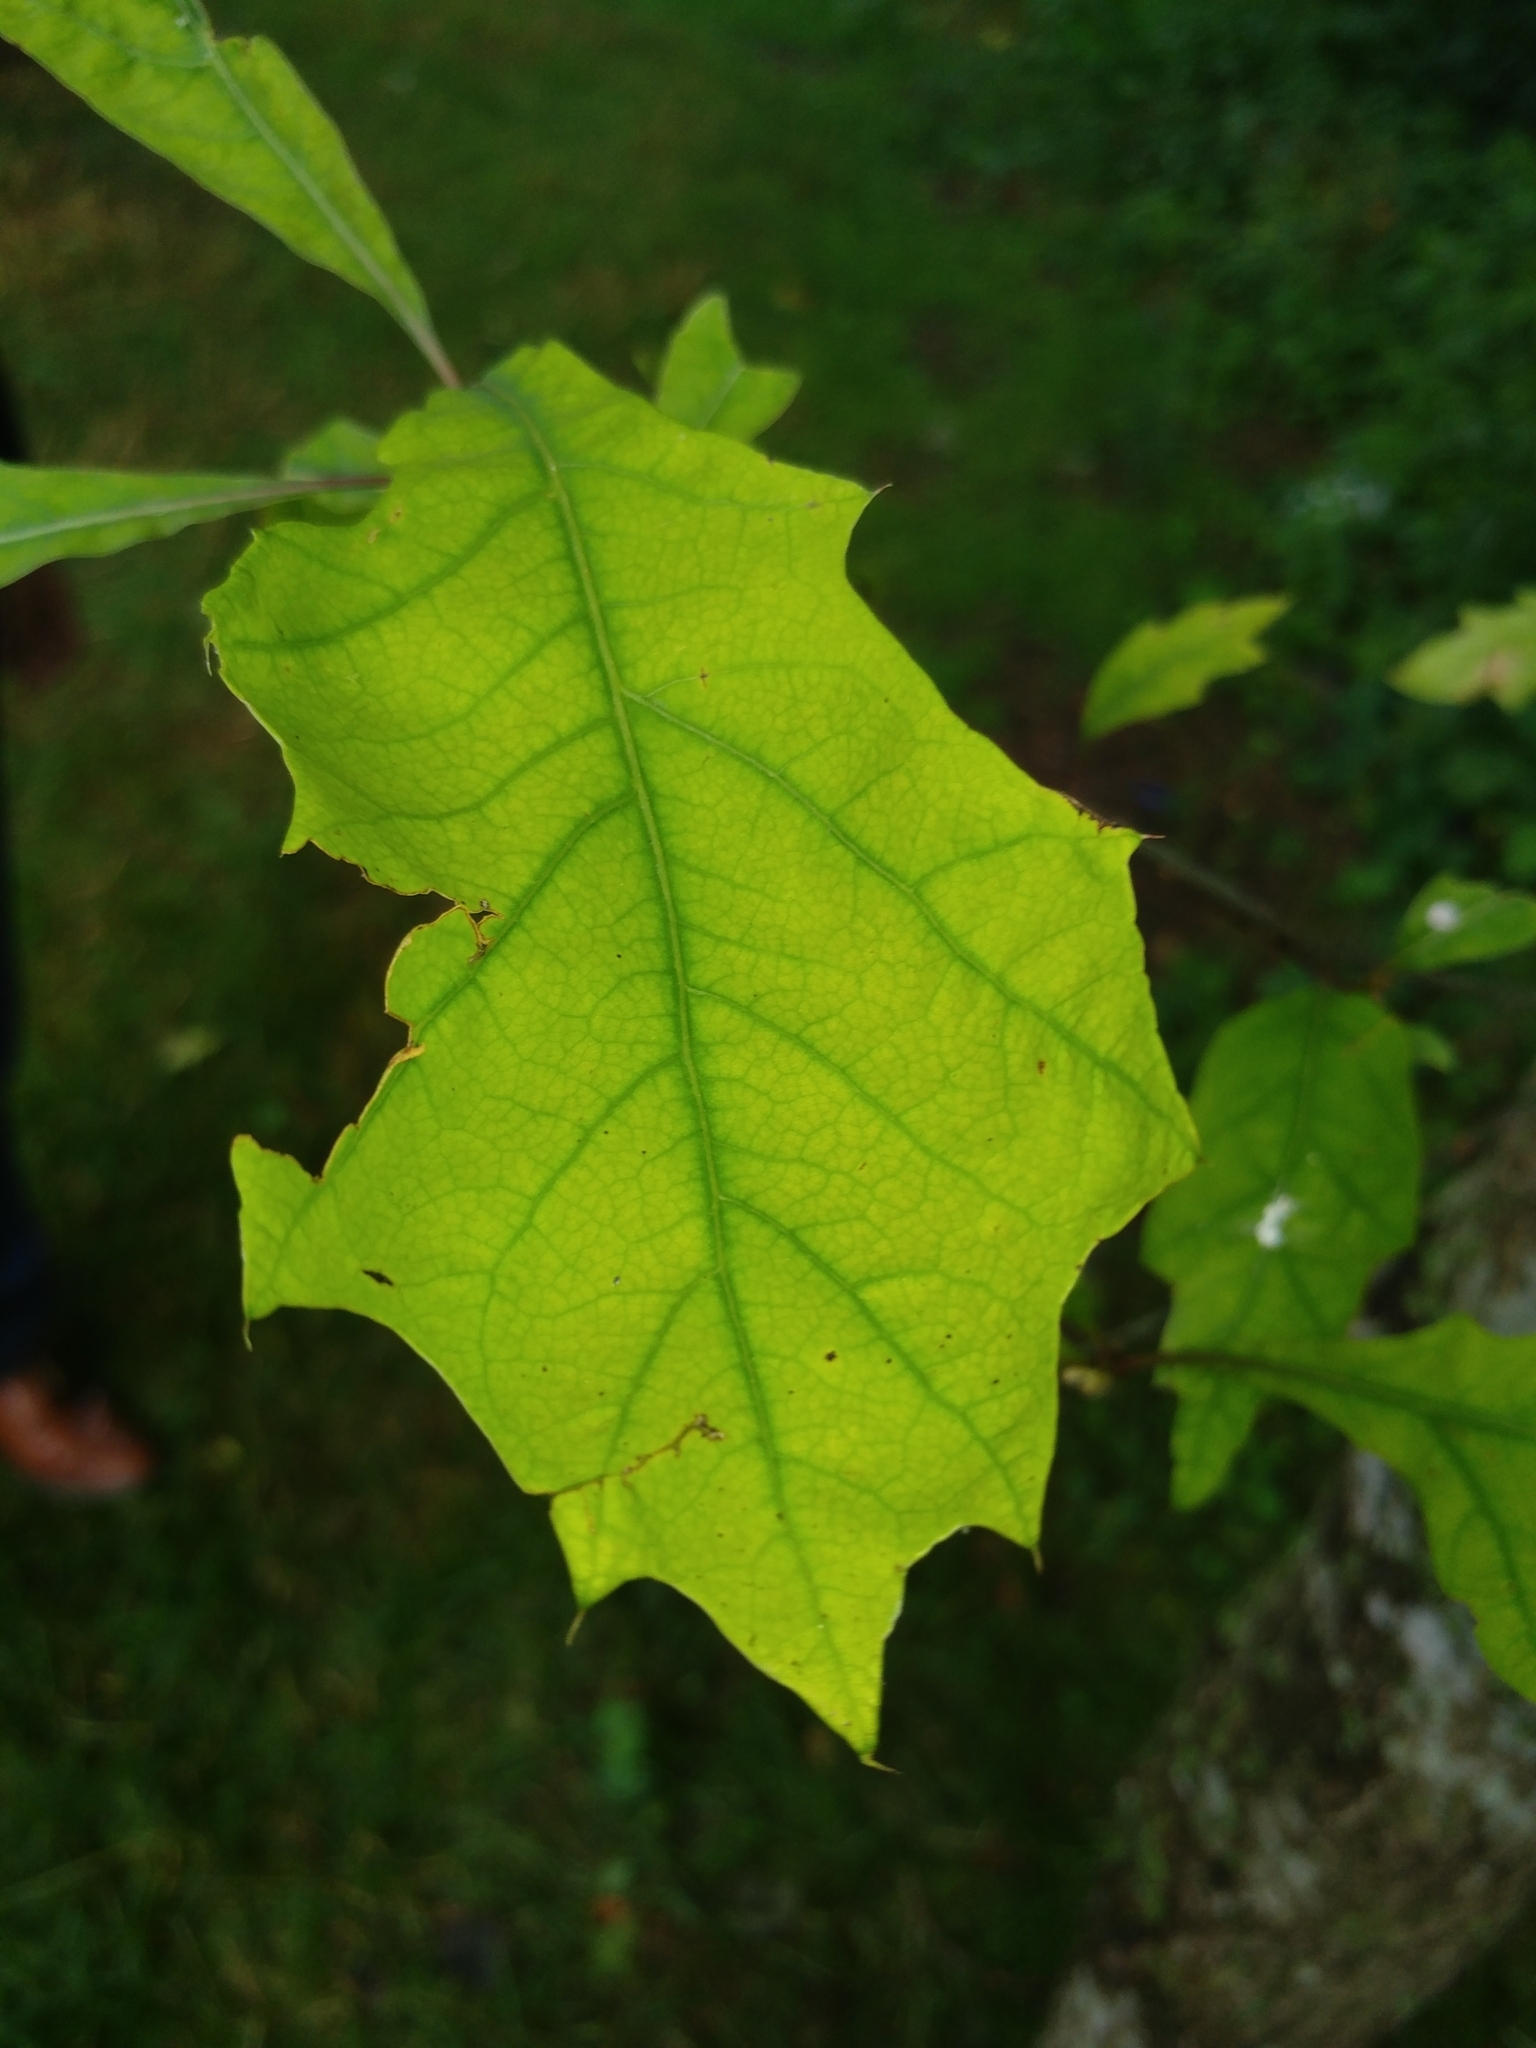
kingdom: Plantae
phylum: Tracheophyta
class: Magnoliopsida
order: Fagales
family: Fagaceae
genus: Quercus
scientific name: Quercus rubra
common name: Red oak
